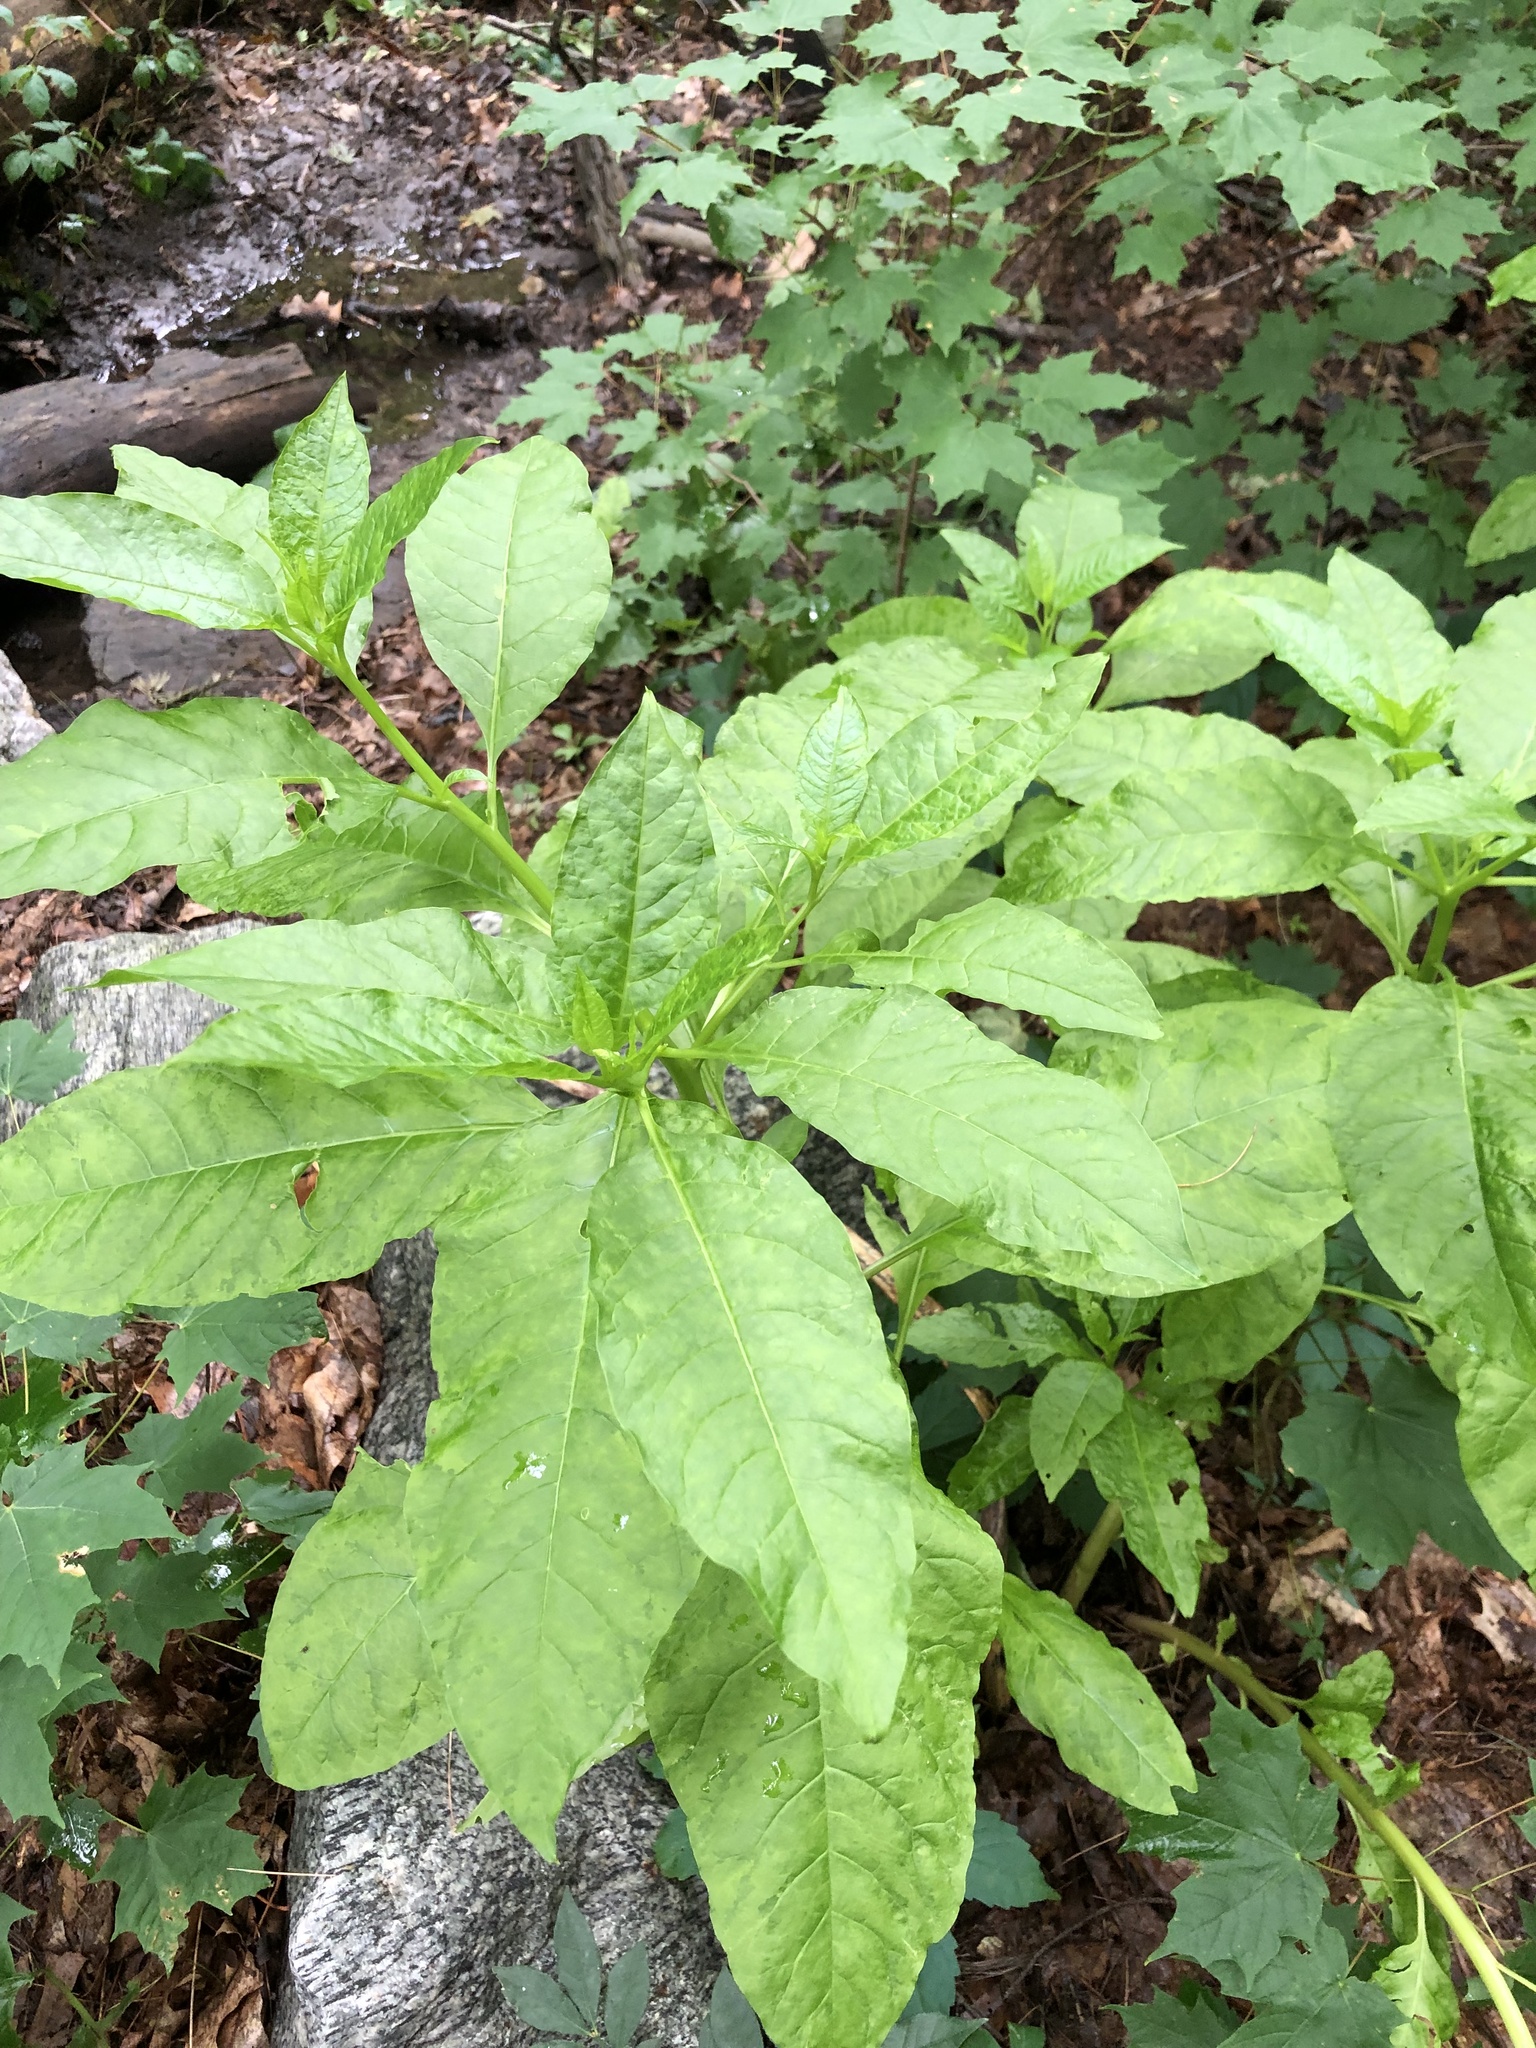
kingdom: Plantae
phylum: Tracheophyta
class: Magnoliopsida
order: Caryophyllales
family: Phytolaccaceae
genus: Phytolacca
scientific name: Phytolacca americana
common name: American pokeweed
